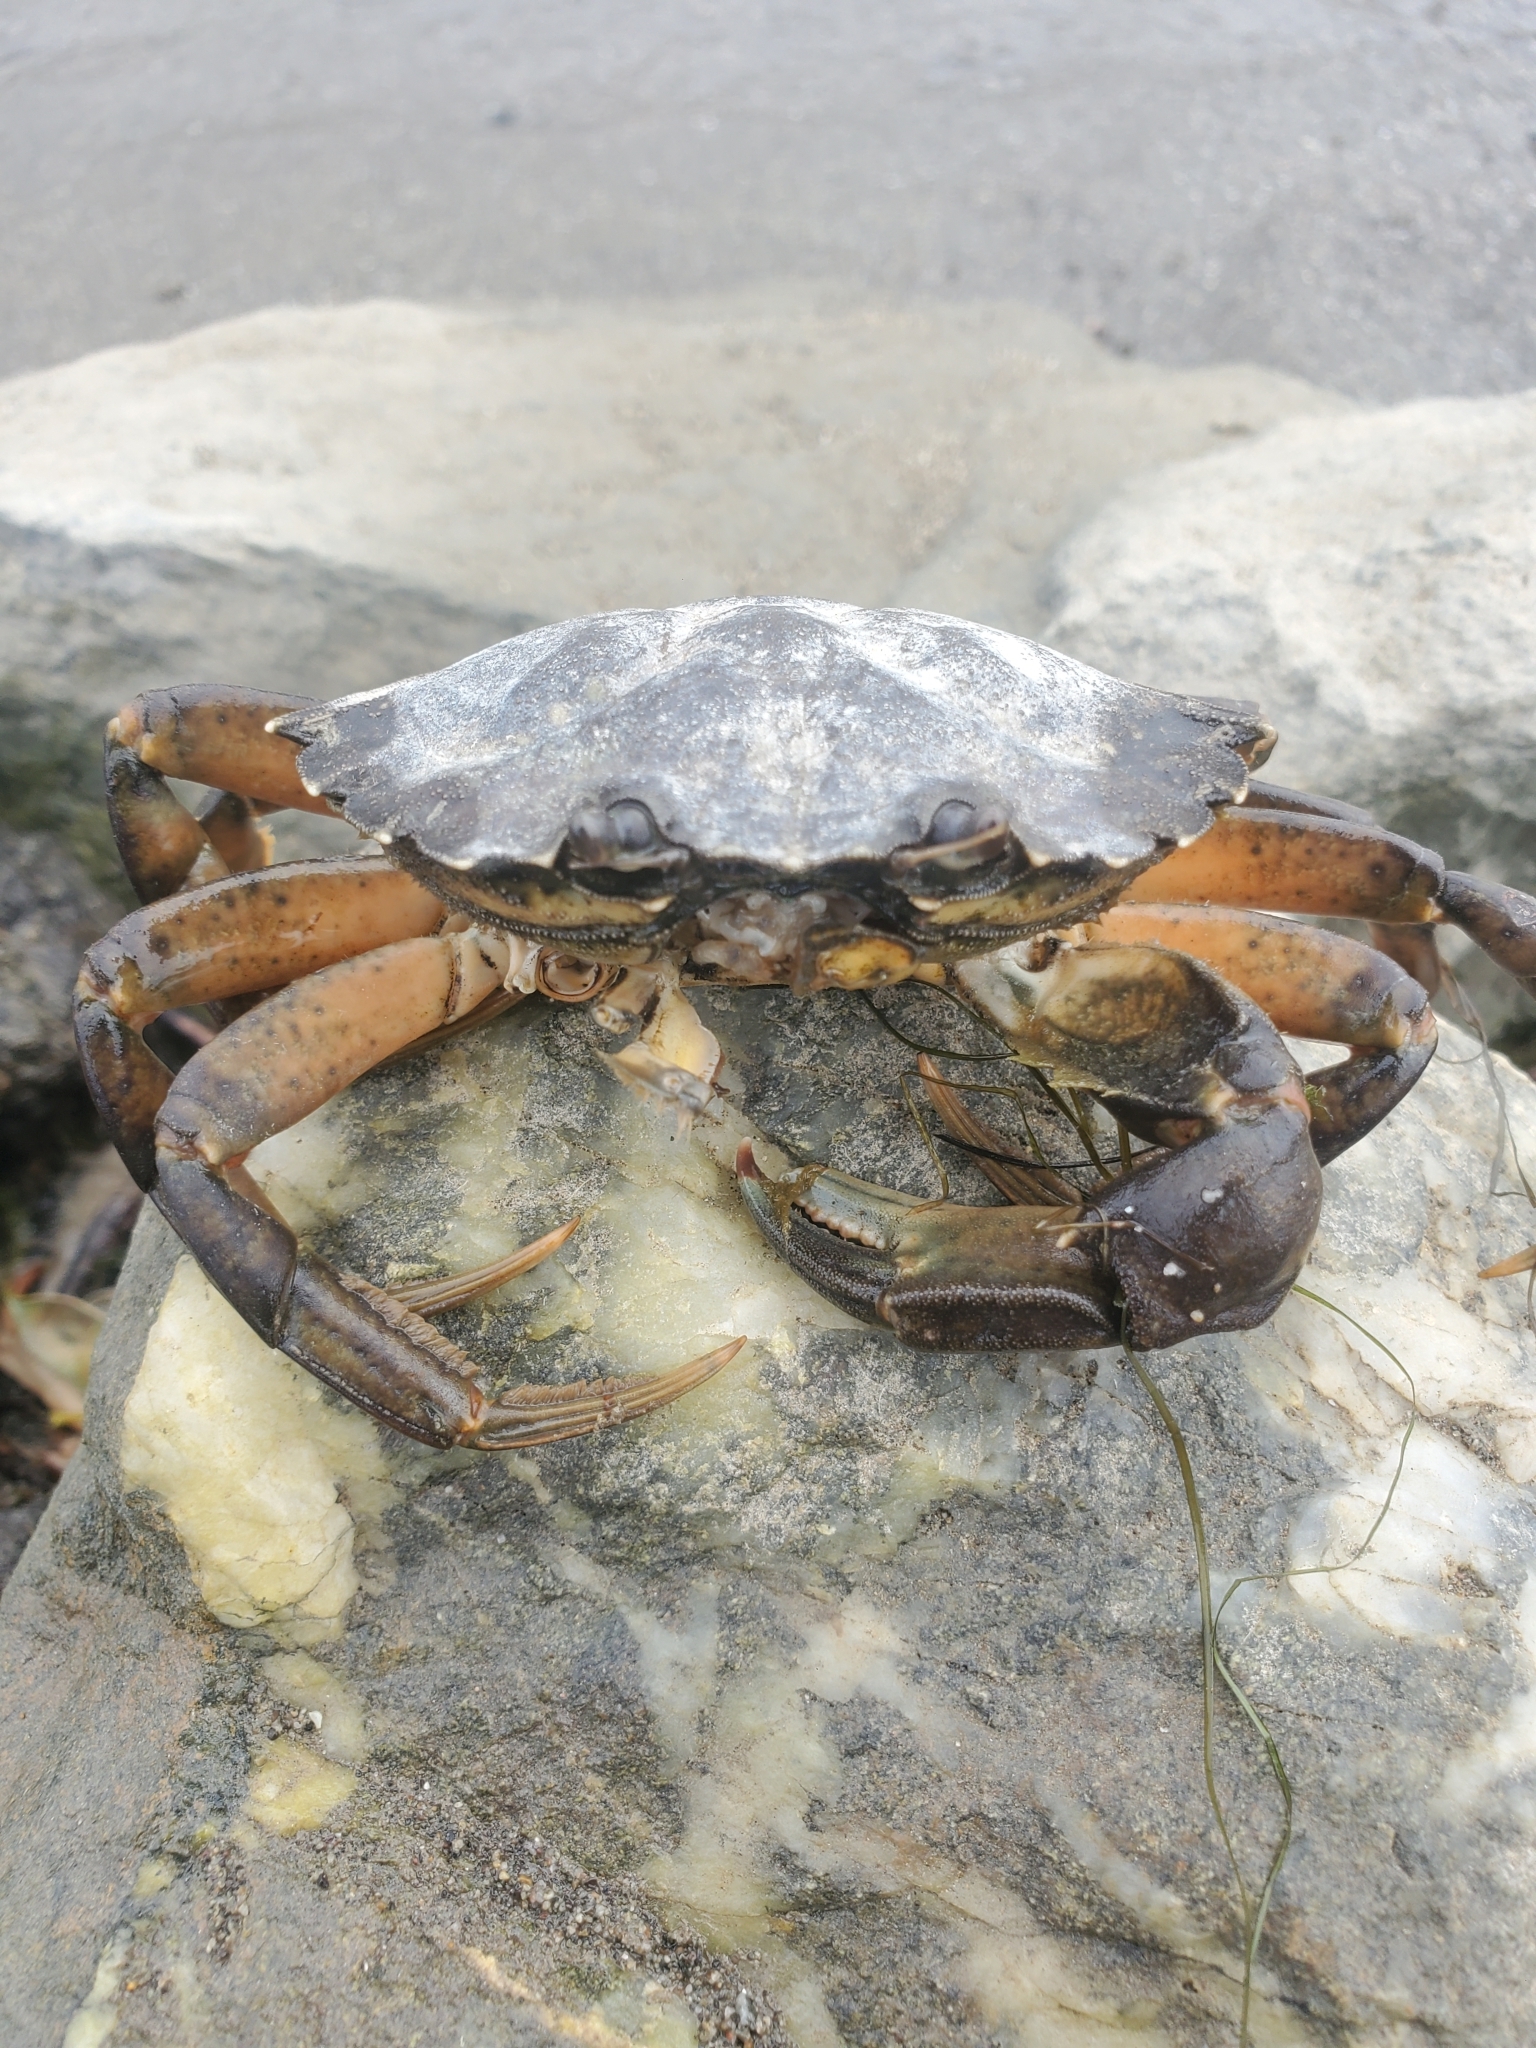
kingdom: Animalia
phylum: Arthropoda
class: Malacostraca
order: Decapoda
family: Carcinidae
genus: Carcinus
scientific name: Carcinus maenas
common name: European green crab
